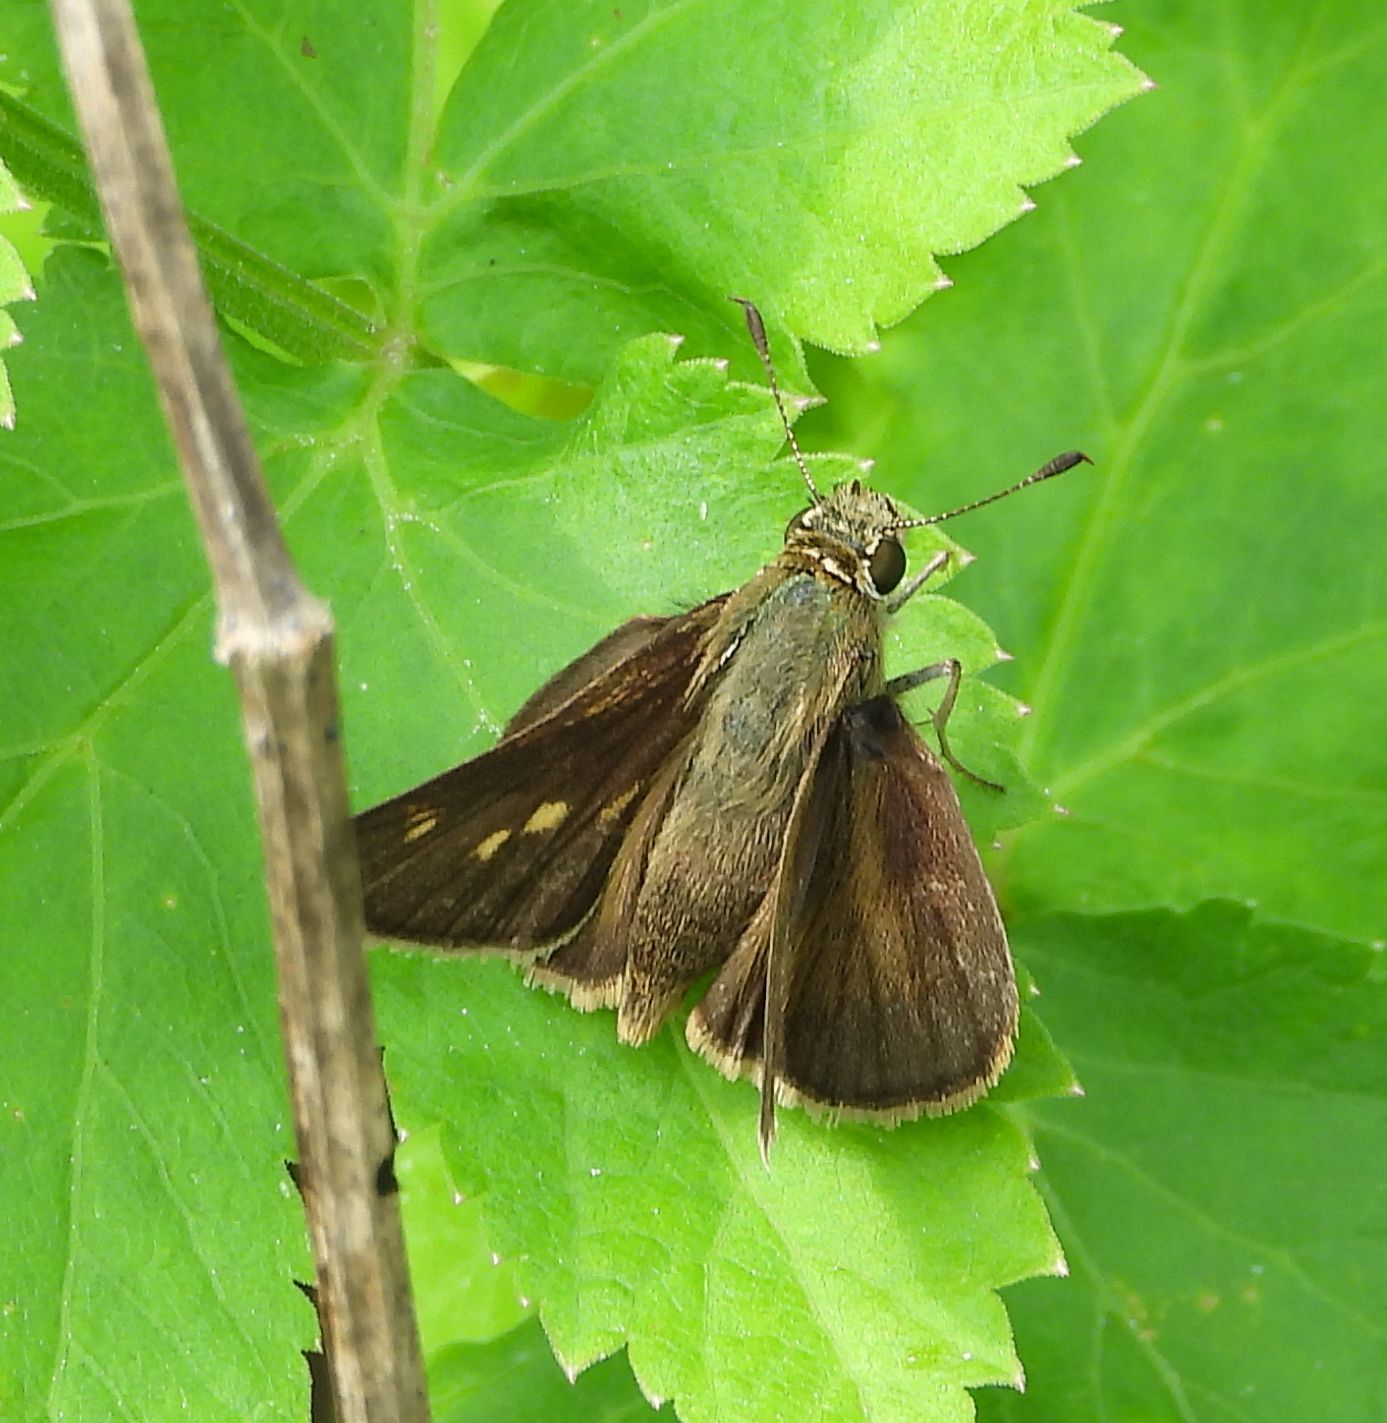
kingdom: Animalia
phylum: Arthropoda
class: Insecta
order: Lepidoptera
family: Hesperiidae
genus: Polites
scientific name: Polites egeremet
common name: Northern broken-dash
